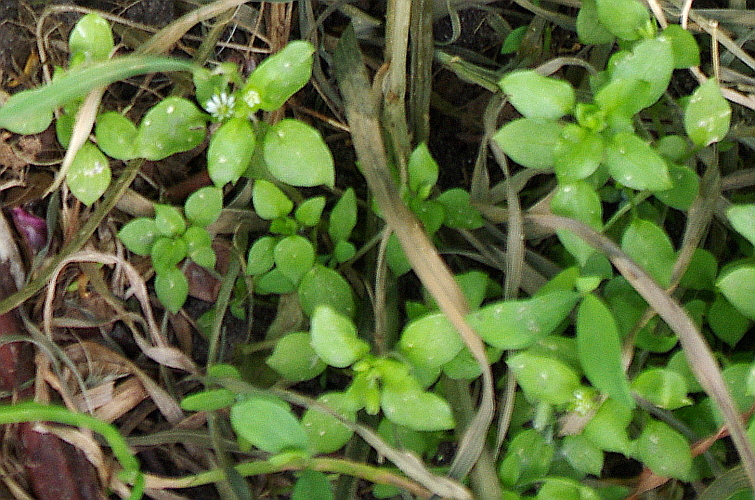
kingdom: Plantae
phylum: Tracheophyta
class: Magnoliopsida
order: Caryophyllales
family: Caryophyllaceae
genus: Stellaria
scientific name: Stellaria media
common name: Common chickweed
